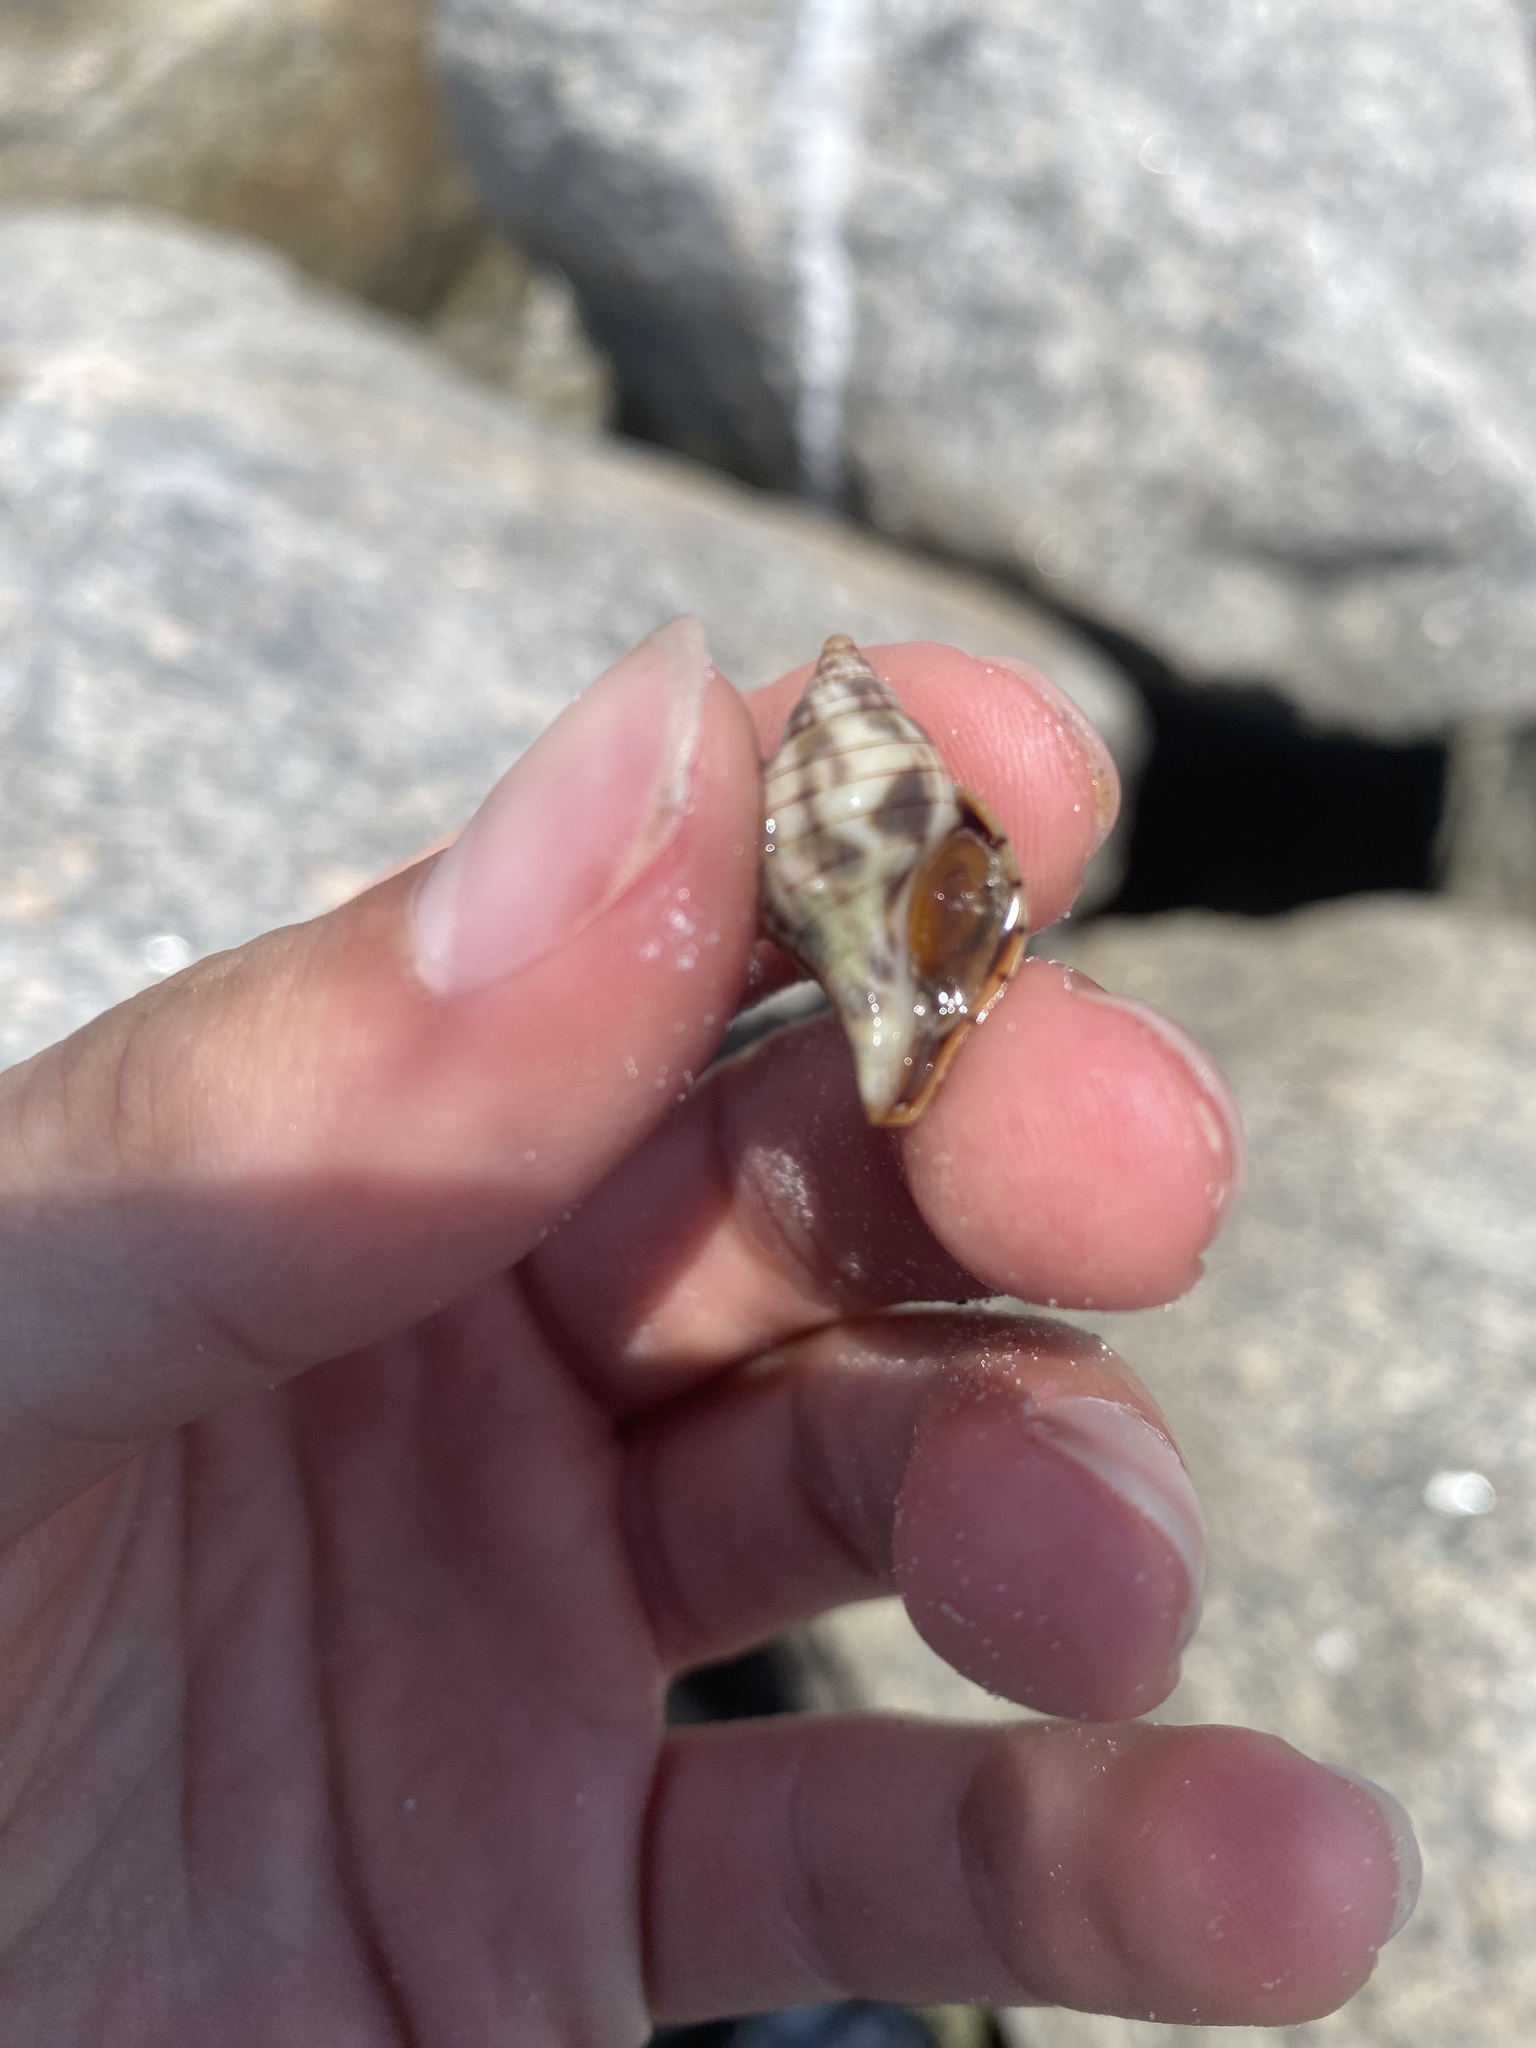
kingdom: Animalia
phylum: Mollusca
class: Gastropoda
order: Neogastropoda
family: Fasciolariidae
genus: Cinctura
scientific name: Cinctura hunteria
